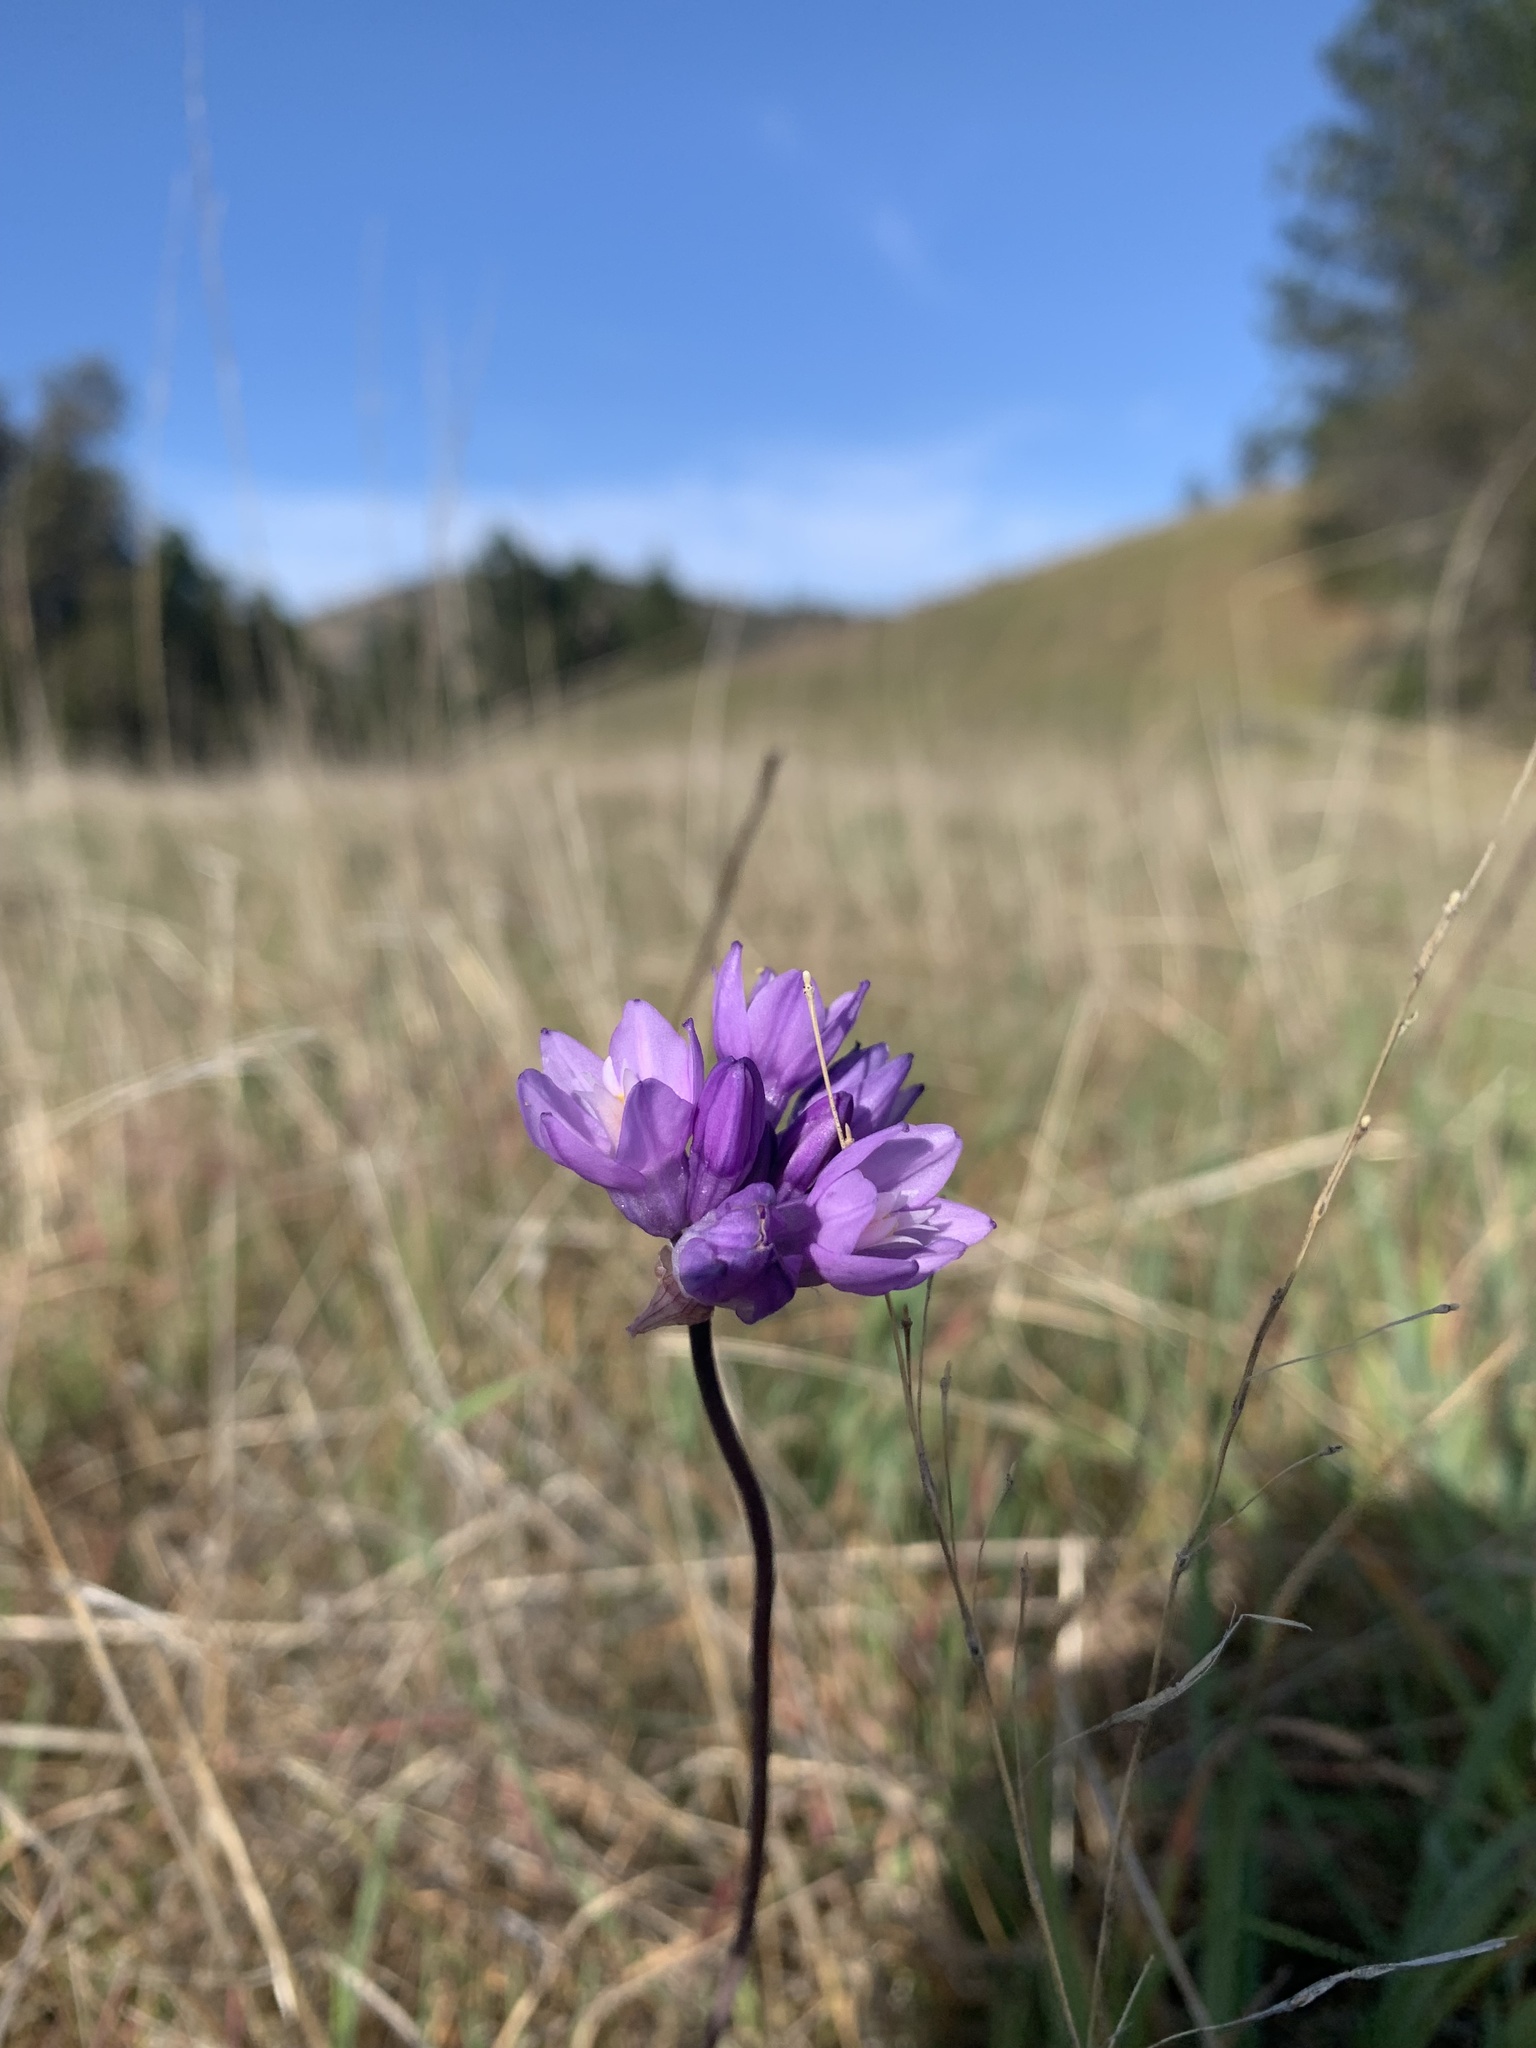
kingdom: Plantae
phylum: Tracheophyta
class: Liliopsida
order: Asparagales
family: Asparagaceae
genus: Dipterostemon
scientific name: Dipterostemon capitatus
